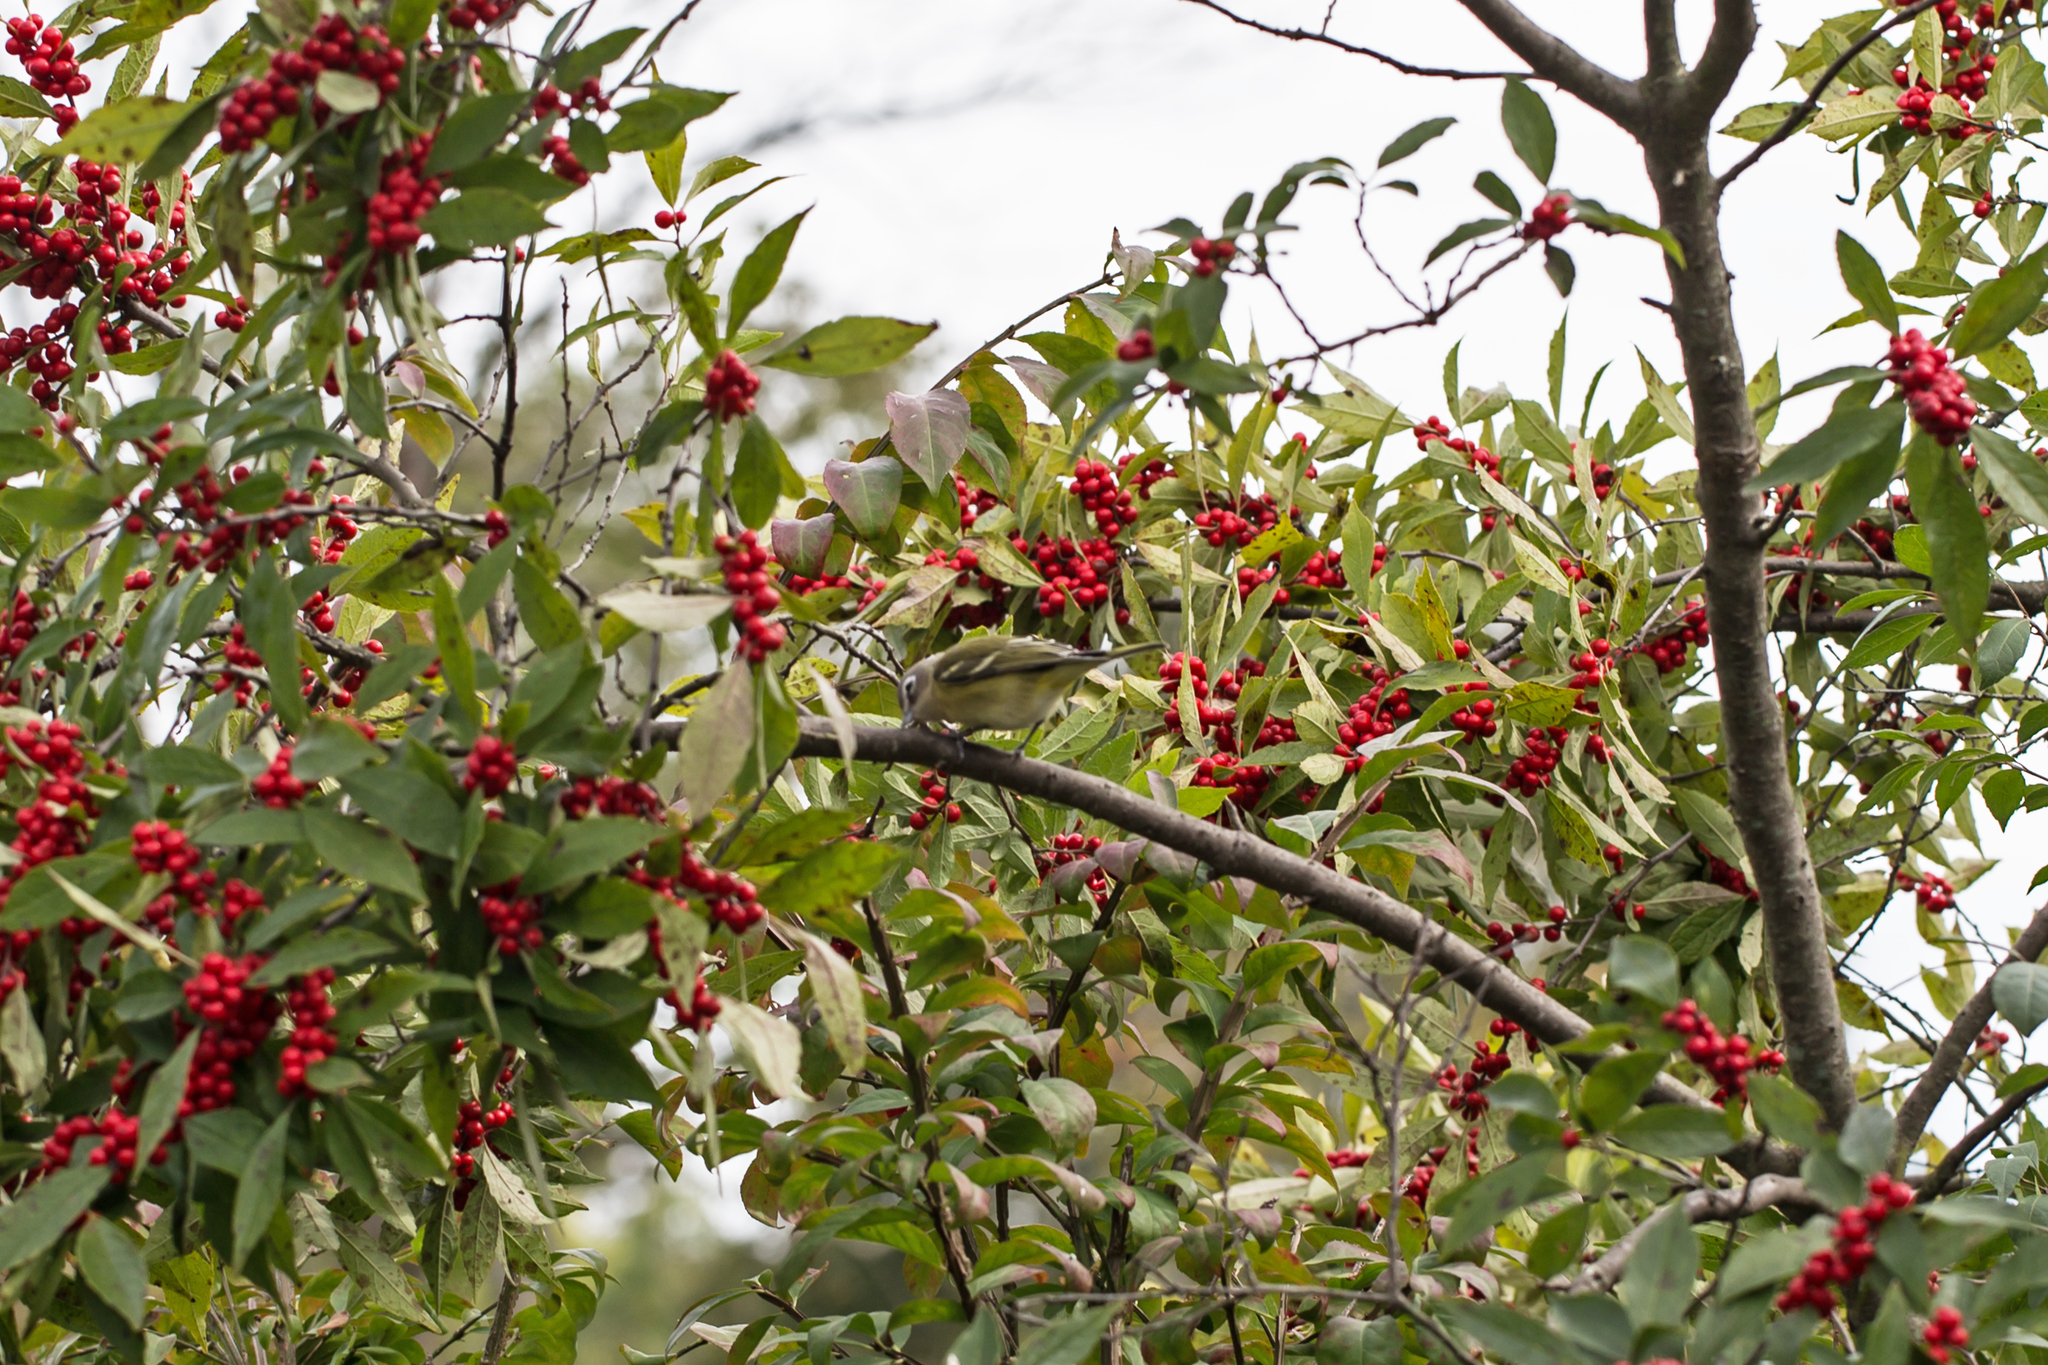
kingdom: Animalia
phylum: Chordata
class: Aves
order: Passeriformes
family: Vireonidae
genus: Vireo
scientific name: Vireo solitarius
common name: Blue-headed vireo
